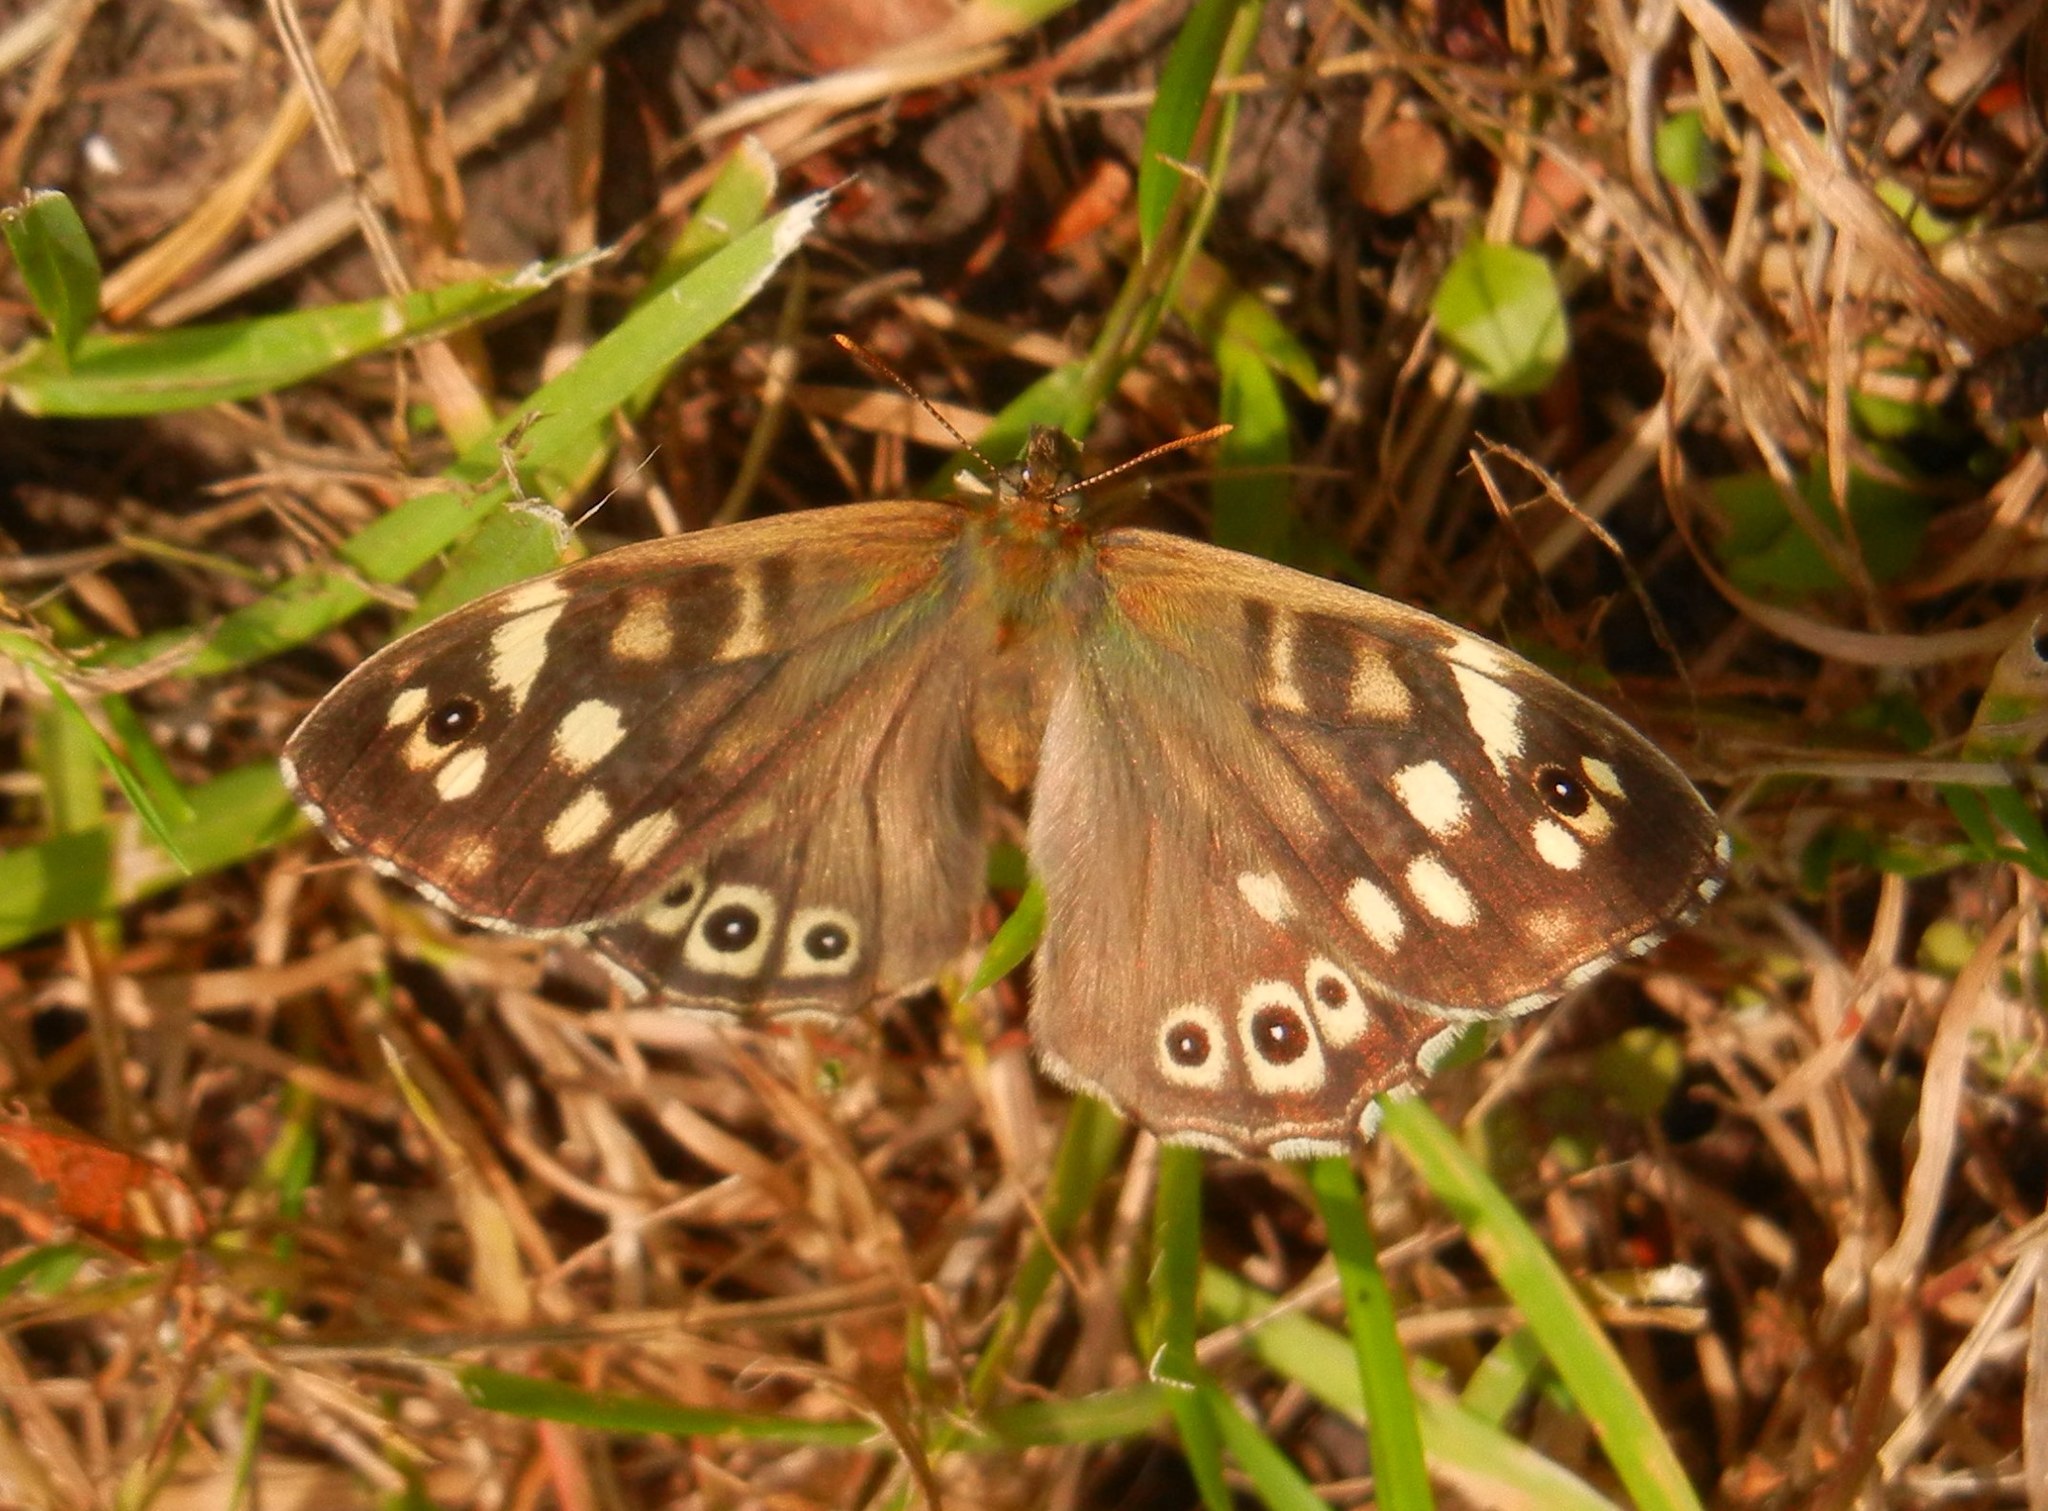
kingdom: Animalia
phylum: Arthropoda
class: Insecta
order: Lepidoptera
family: Nymphalidae
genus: Pararge
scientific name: Pararge aegeria
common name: Speckled wood
